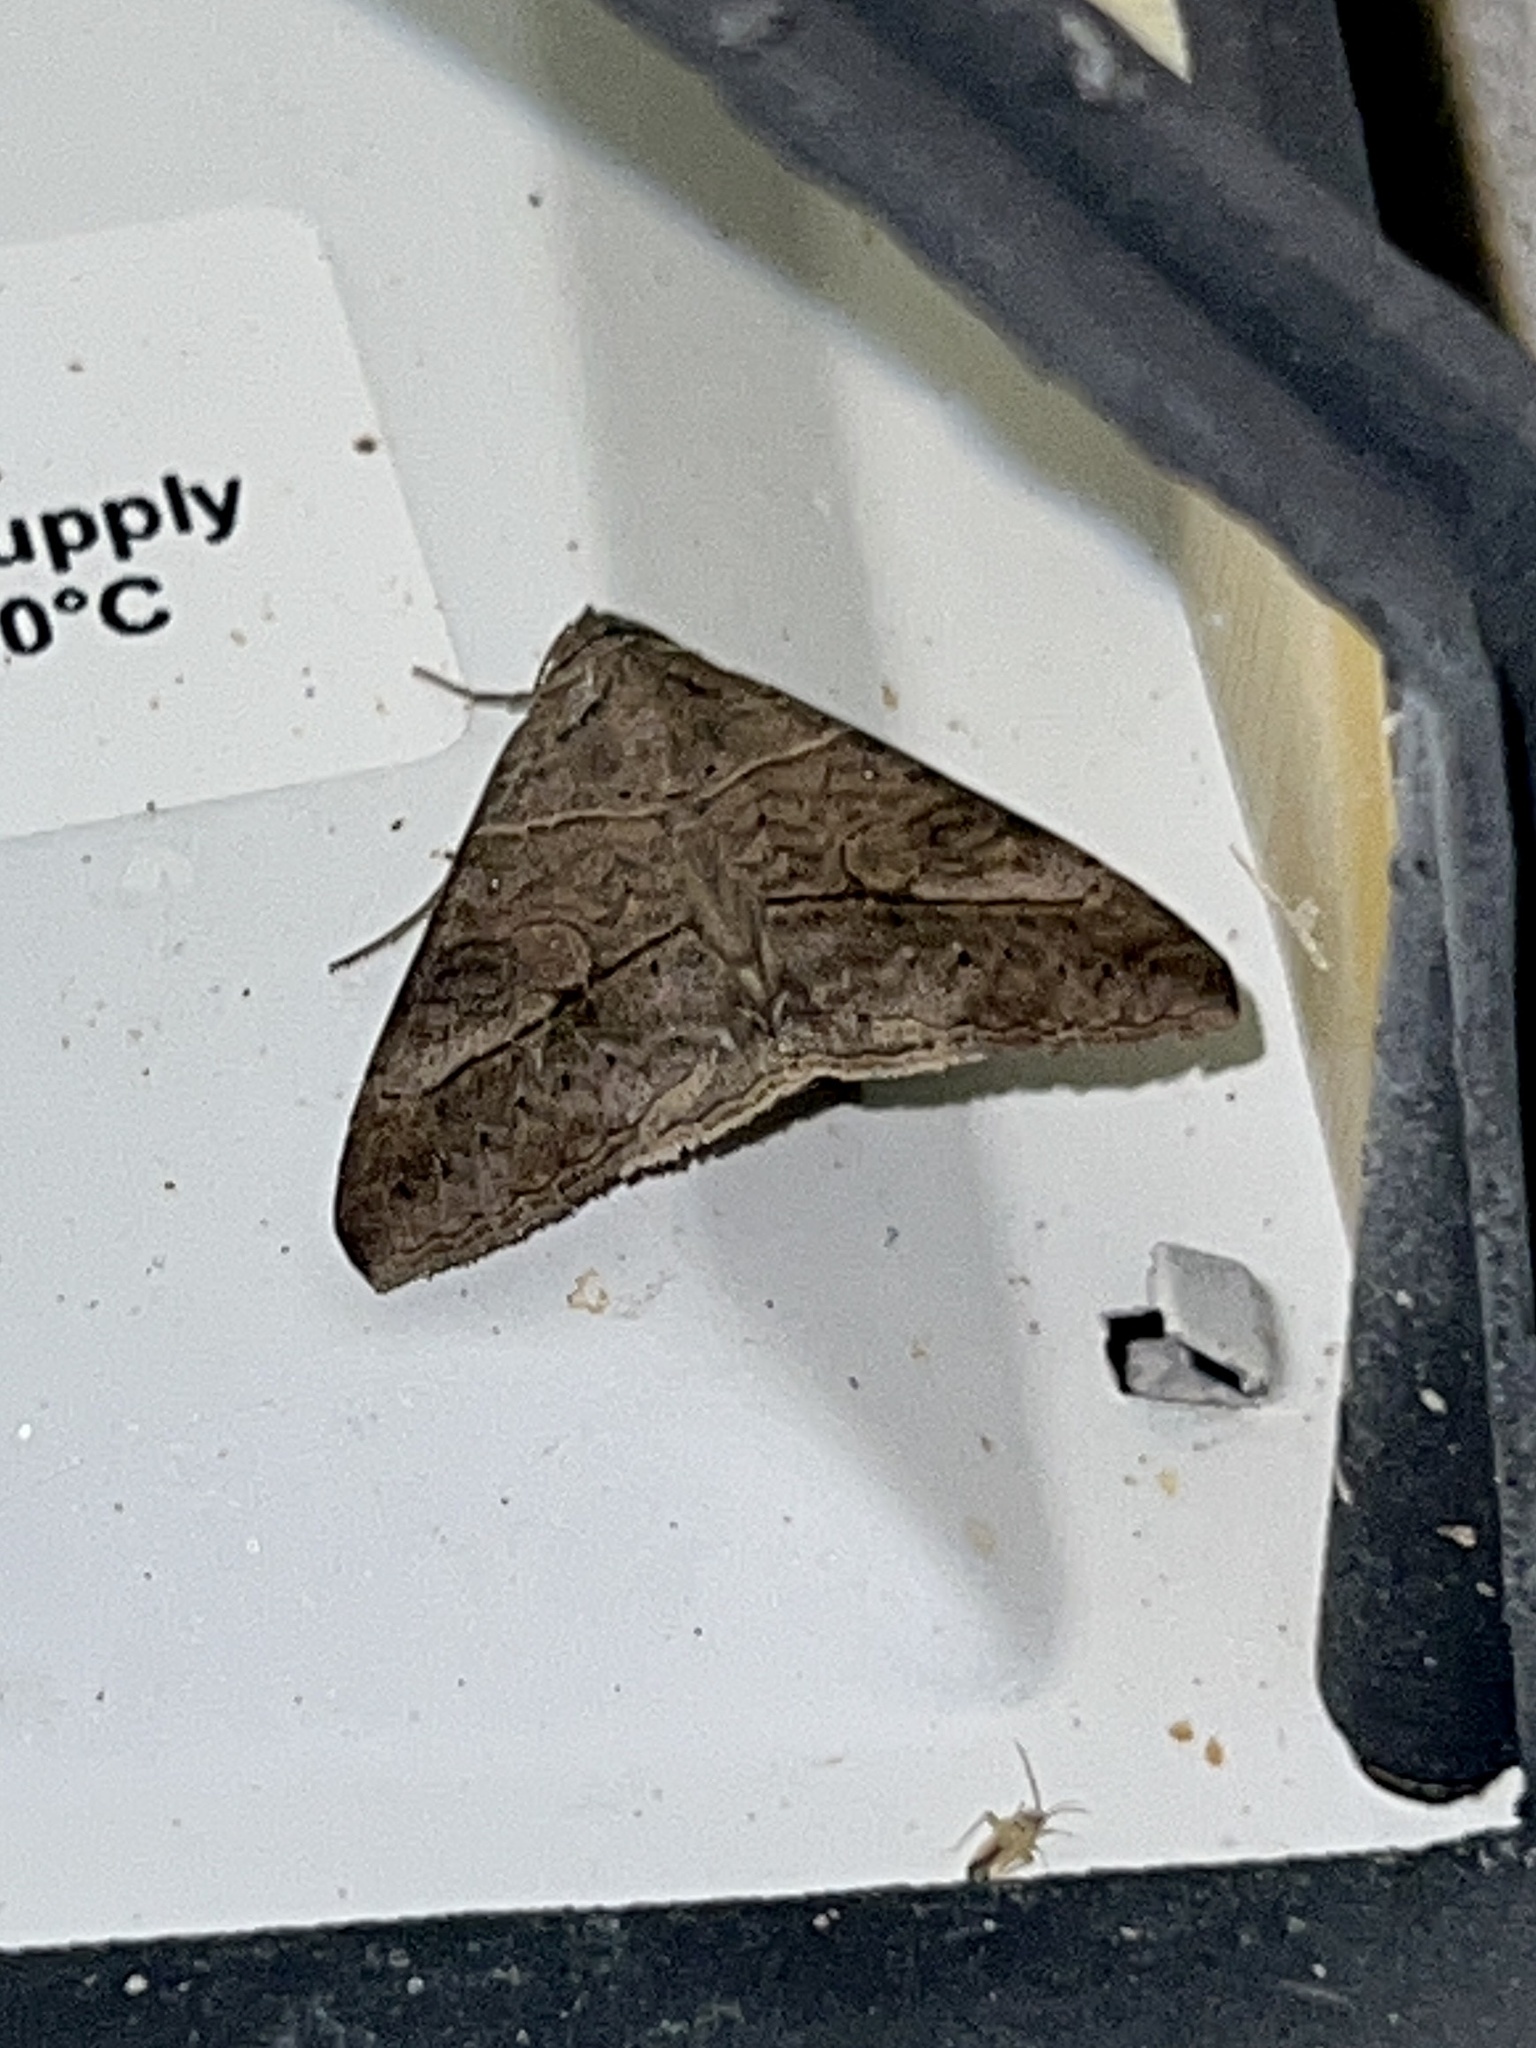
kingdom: Animalia
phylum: Arthropoda
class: Insecta
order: Lepidoptera
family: Erebidae
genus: Mocis
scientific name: Mocis latipes
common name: Striped grass looper
